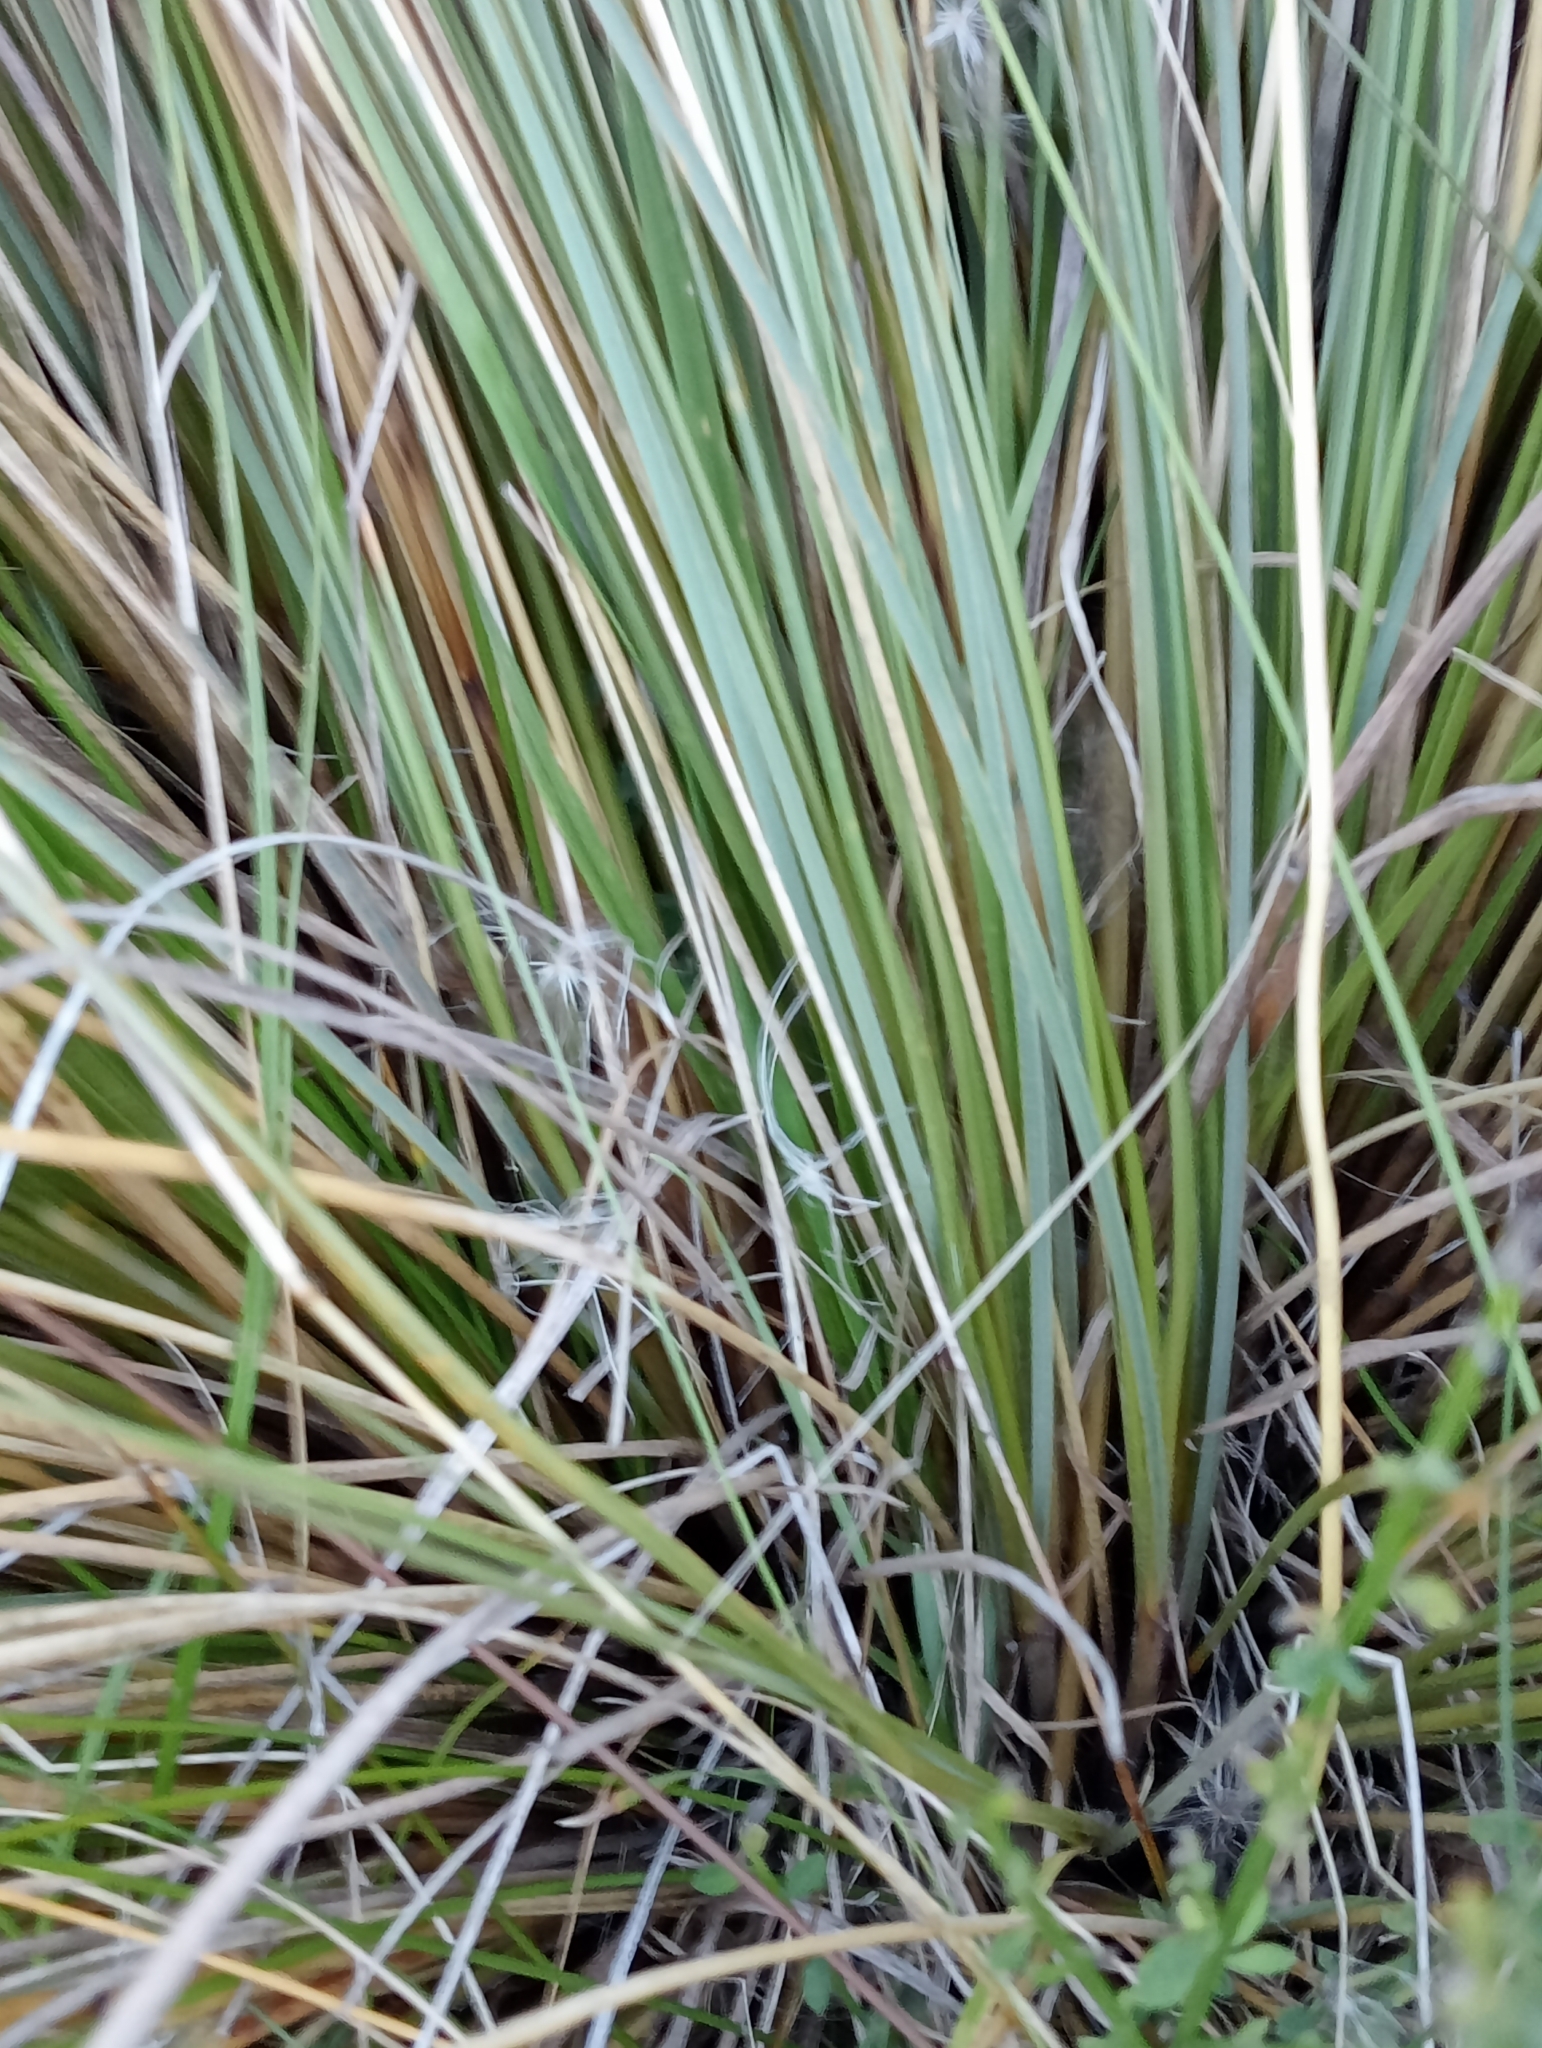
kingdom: Plantae
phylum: Tracheophyta
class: Liliopsida
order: Poales
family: Poaceae
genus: Chionochloa
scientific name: Chionochloa rubra
